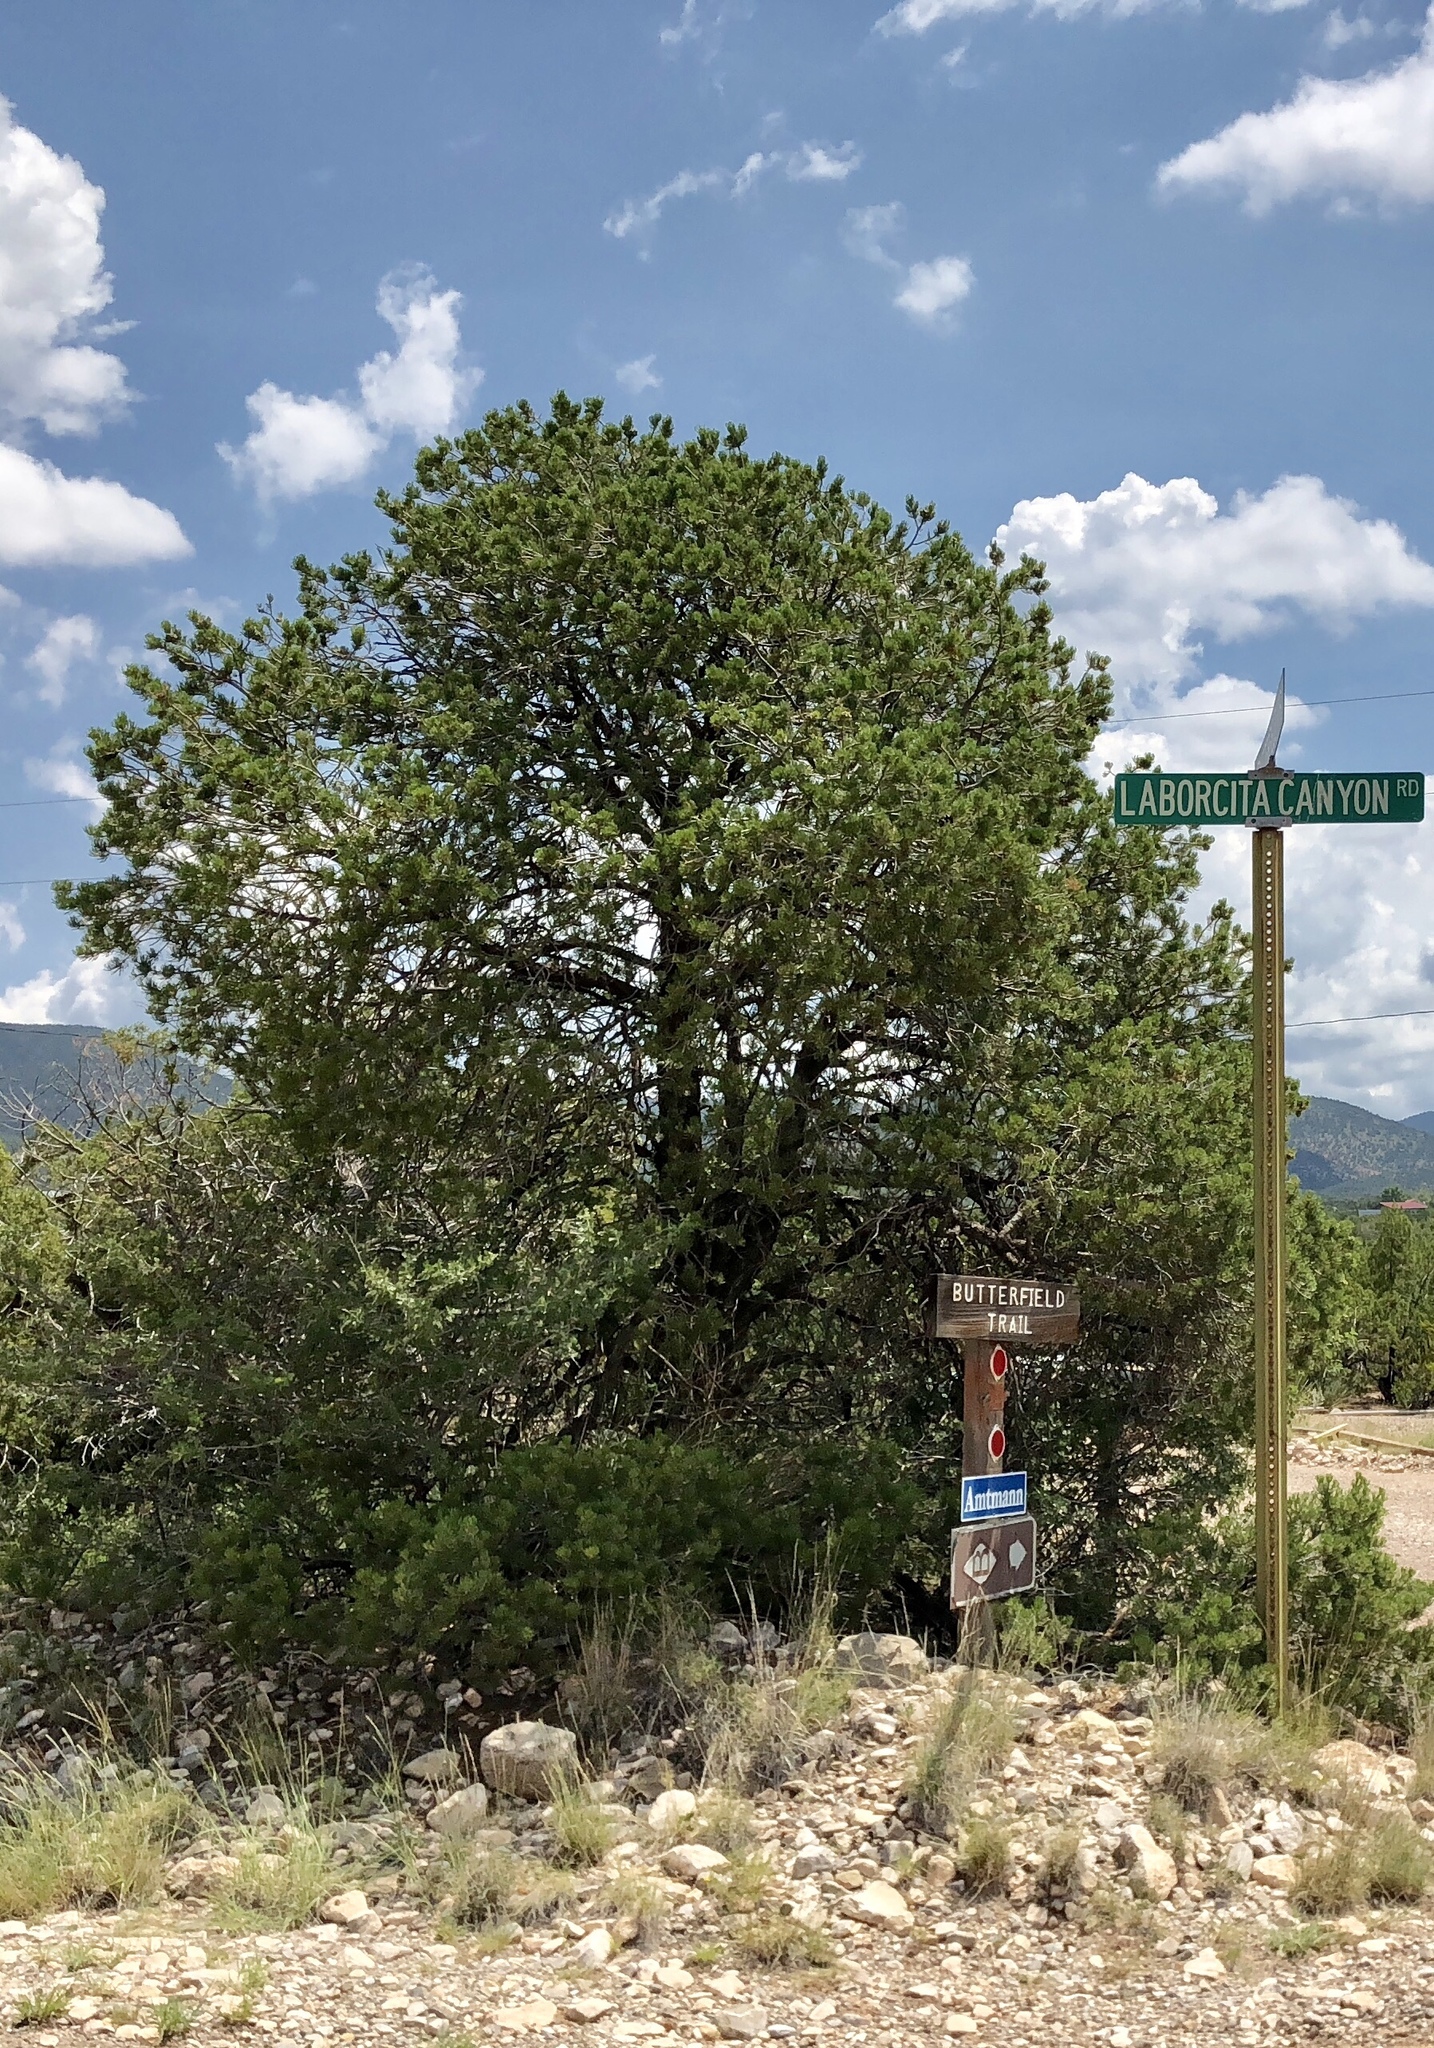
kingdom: Plantae
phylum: Tracheophyta
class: Pinopsida
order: Pinales
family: Pinaceae
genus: Pinus
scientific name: Pinus edulis
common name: Colorado pinyon
